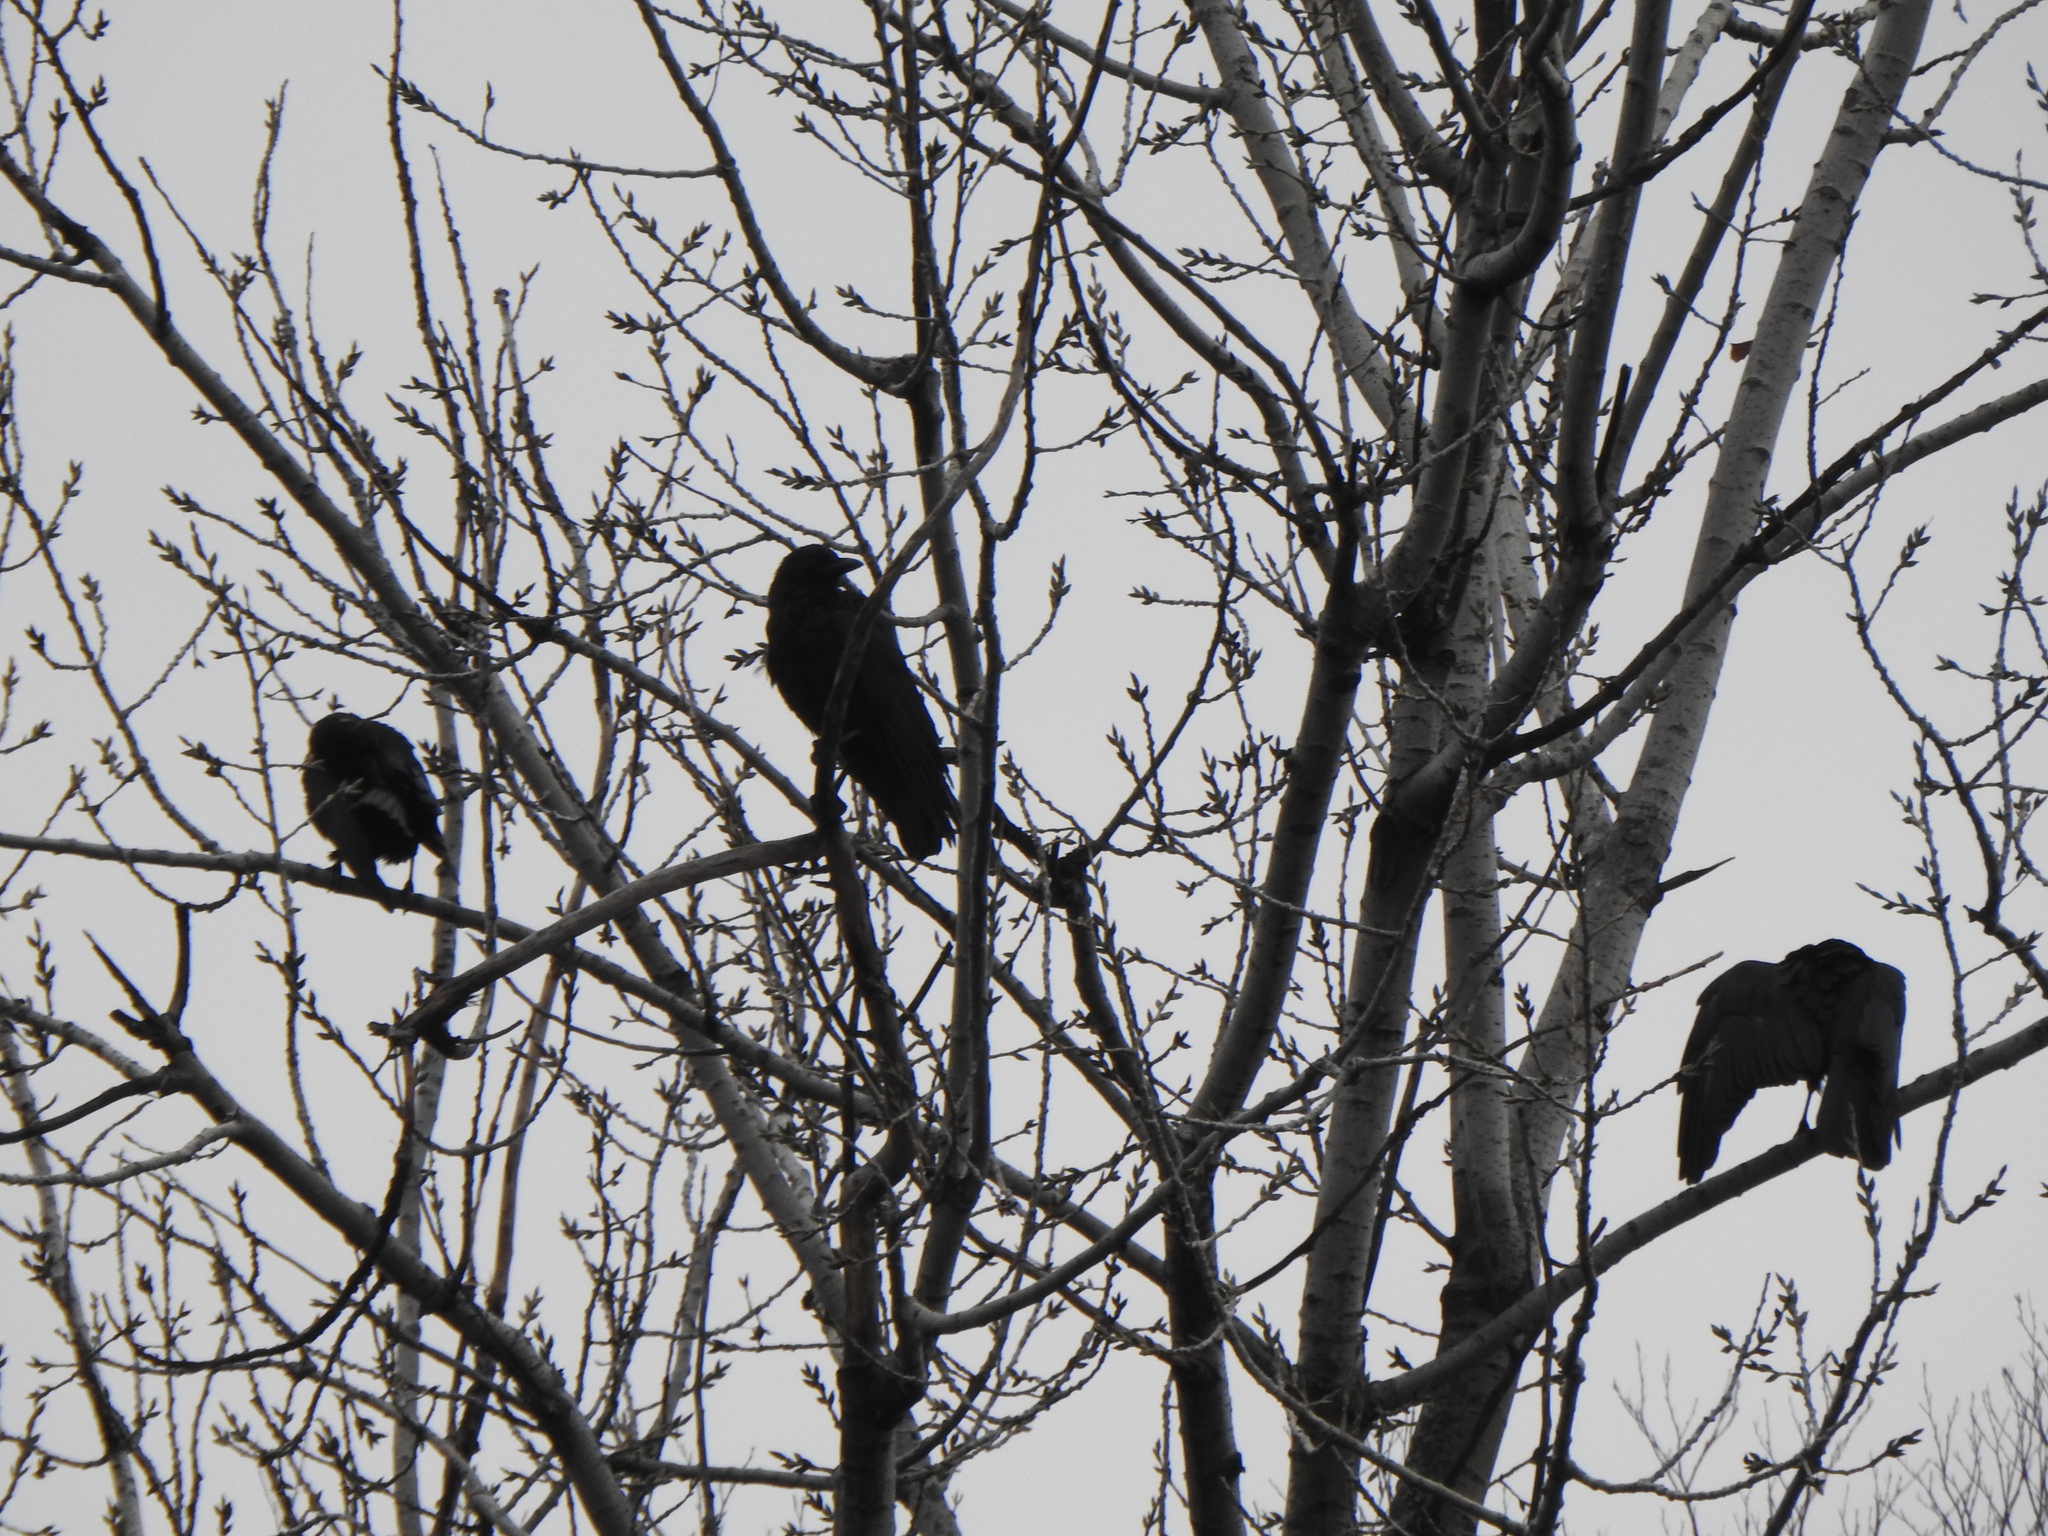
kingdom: Animalia
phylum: Chordata
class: Aves
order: Passeriformes
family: Corvidae
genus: Corvus
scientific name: Corvus brachyrhynchos
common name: American crow
